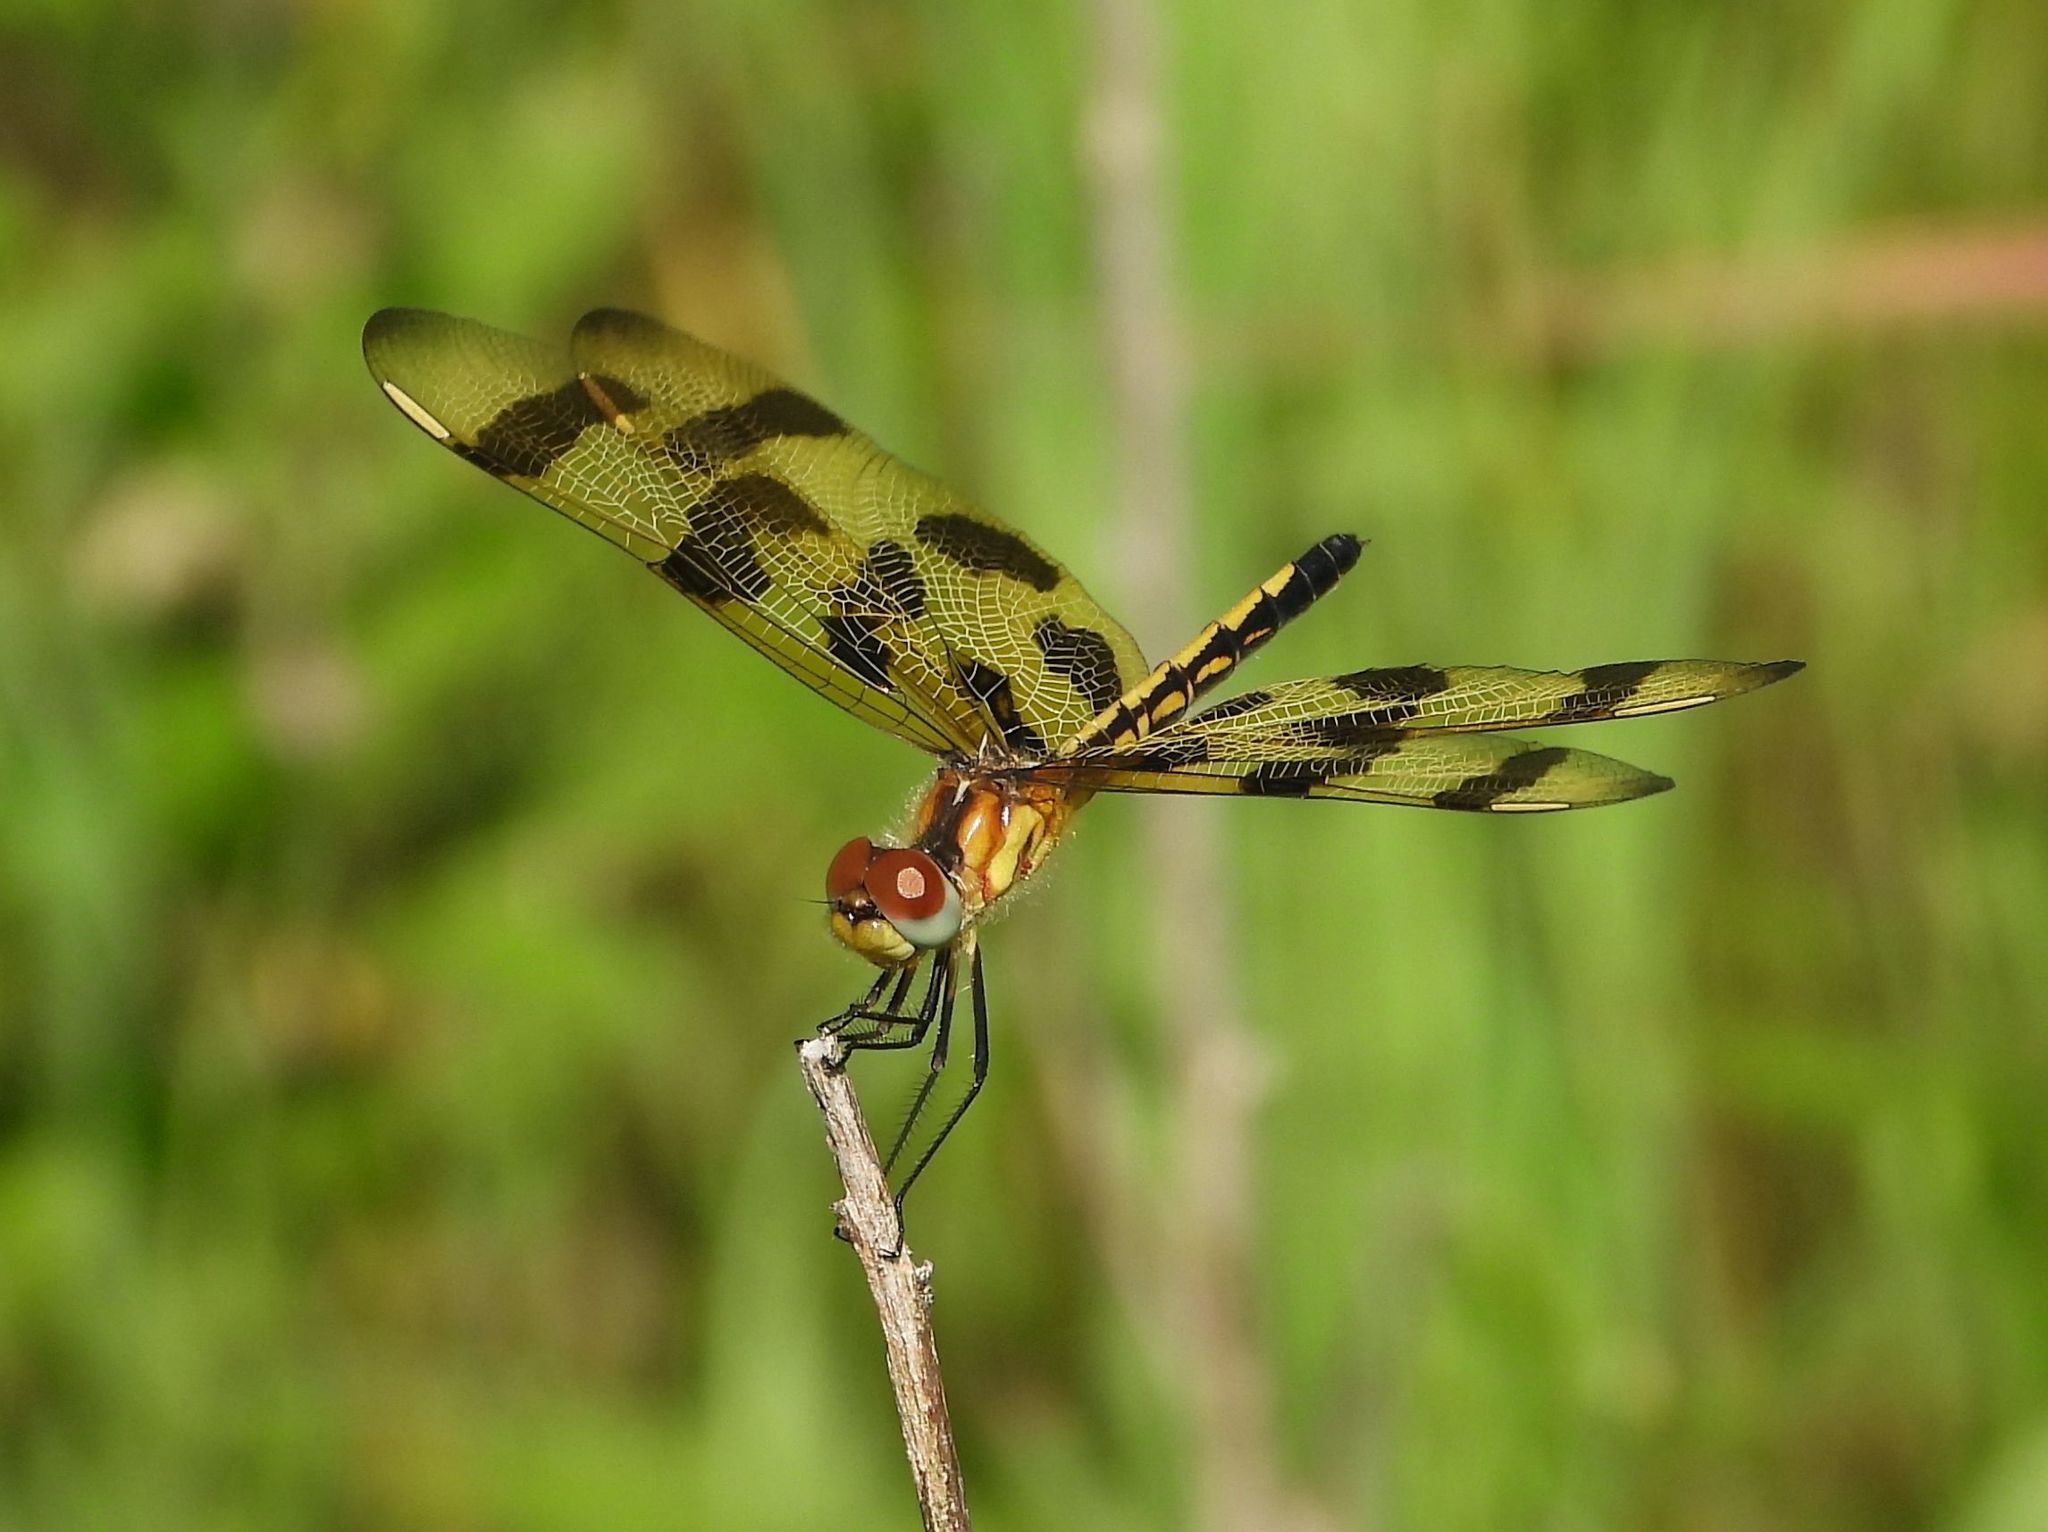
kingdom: Animalia
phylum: Arthropoda
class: Insecta
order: Odonata
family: Libellulidae
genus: Celithemis
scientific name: Celithemis eponina
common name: Halloween pennant
